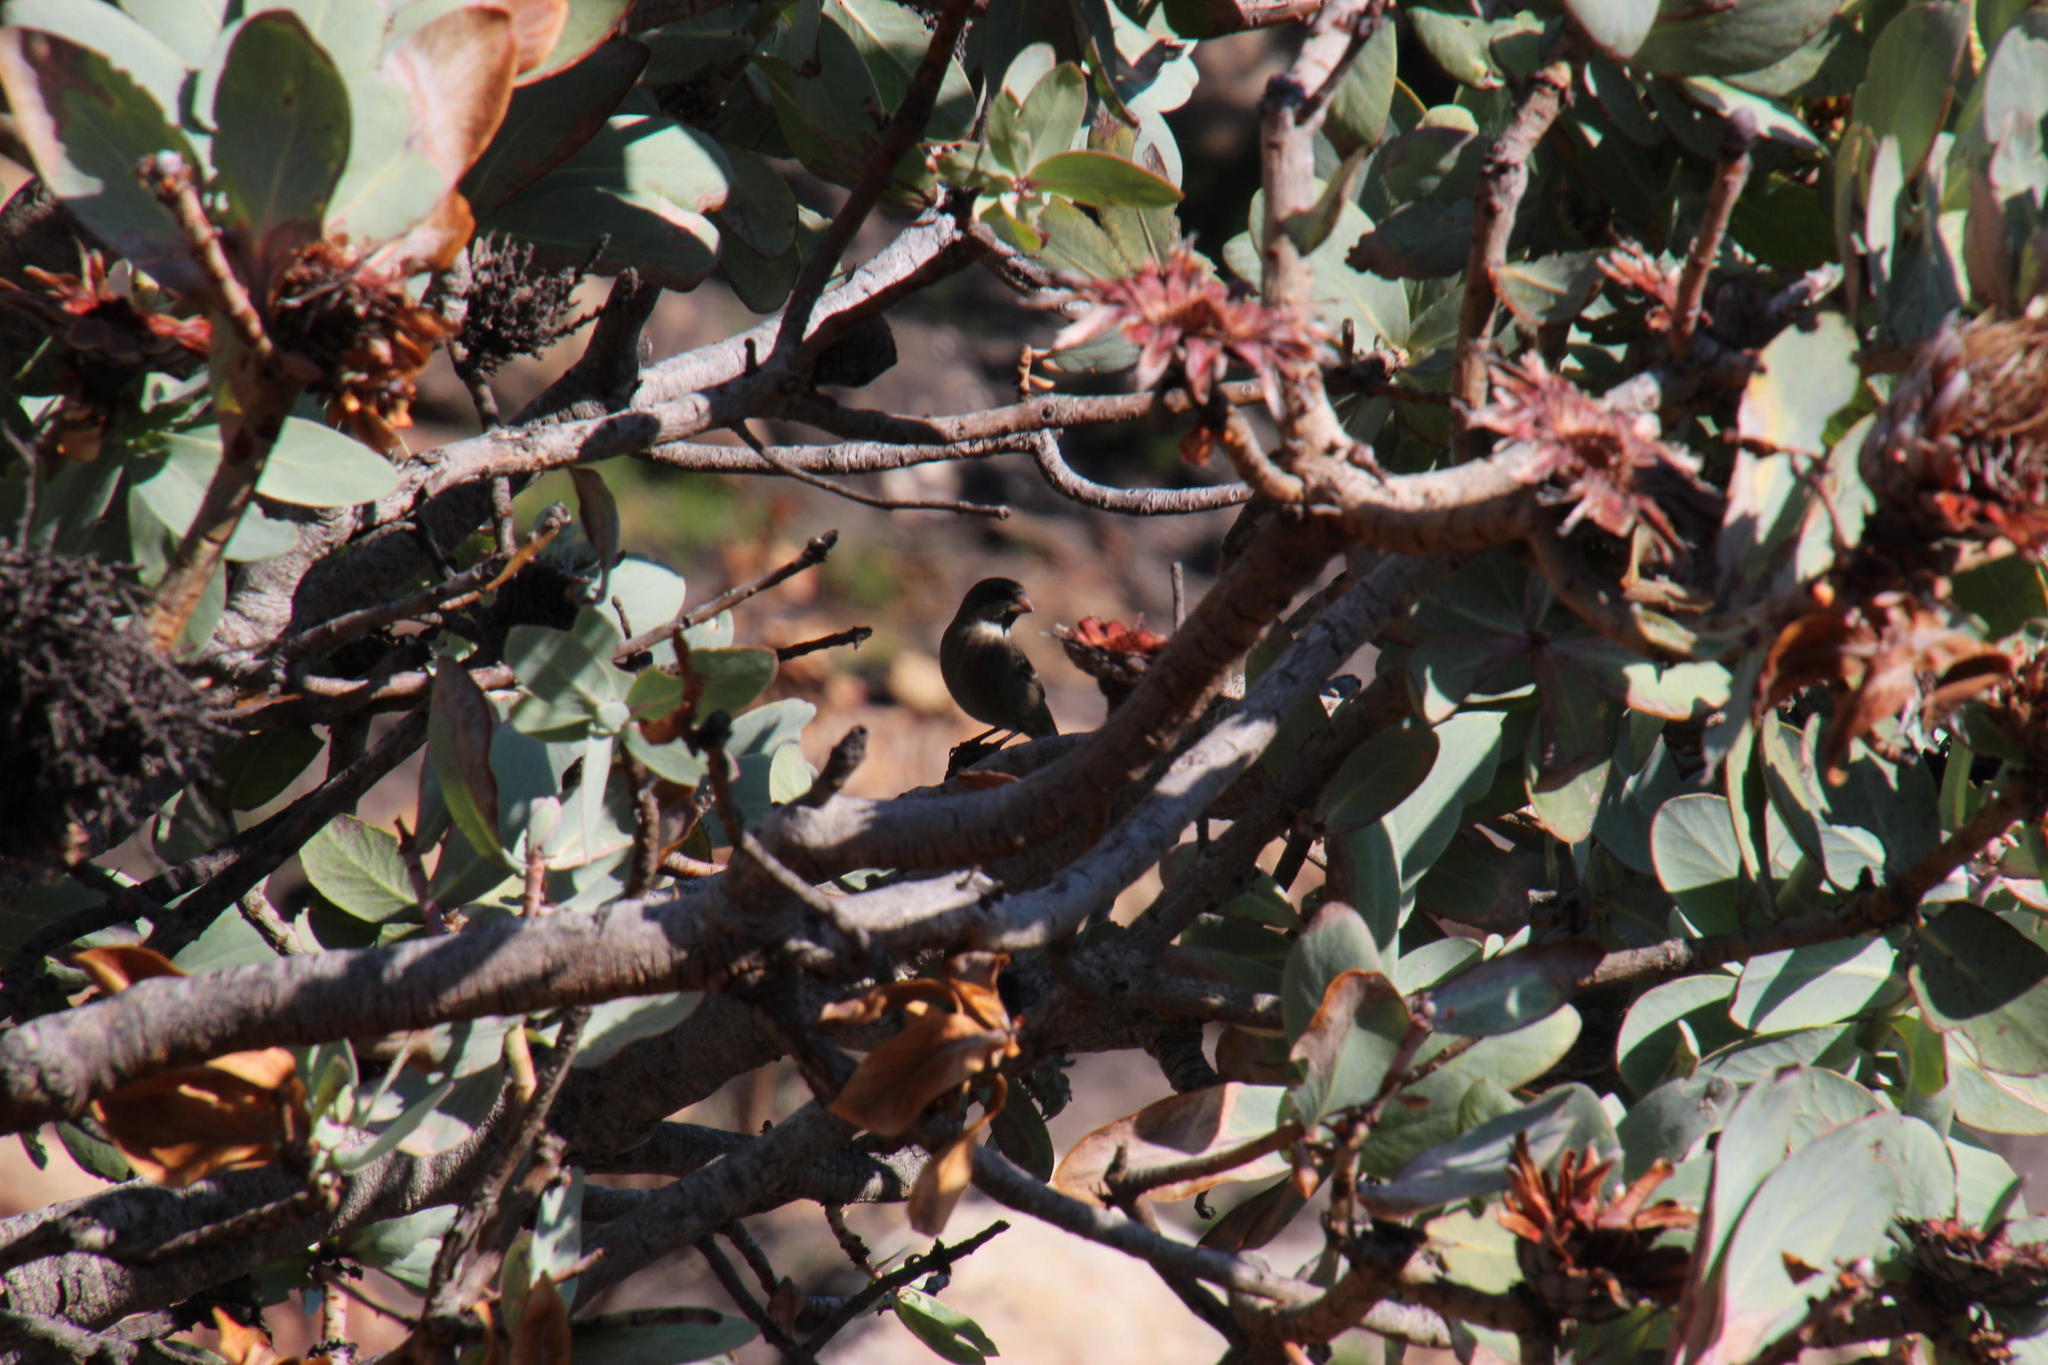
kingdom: Plantae
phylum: Tracheophyta
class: Magnoliopsida
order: Proteales
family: Proteaceae
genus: Protea
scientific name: Protea nitida
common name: Tree protea
